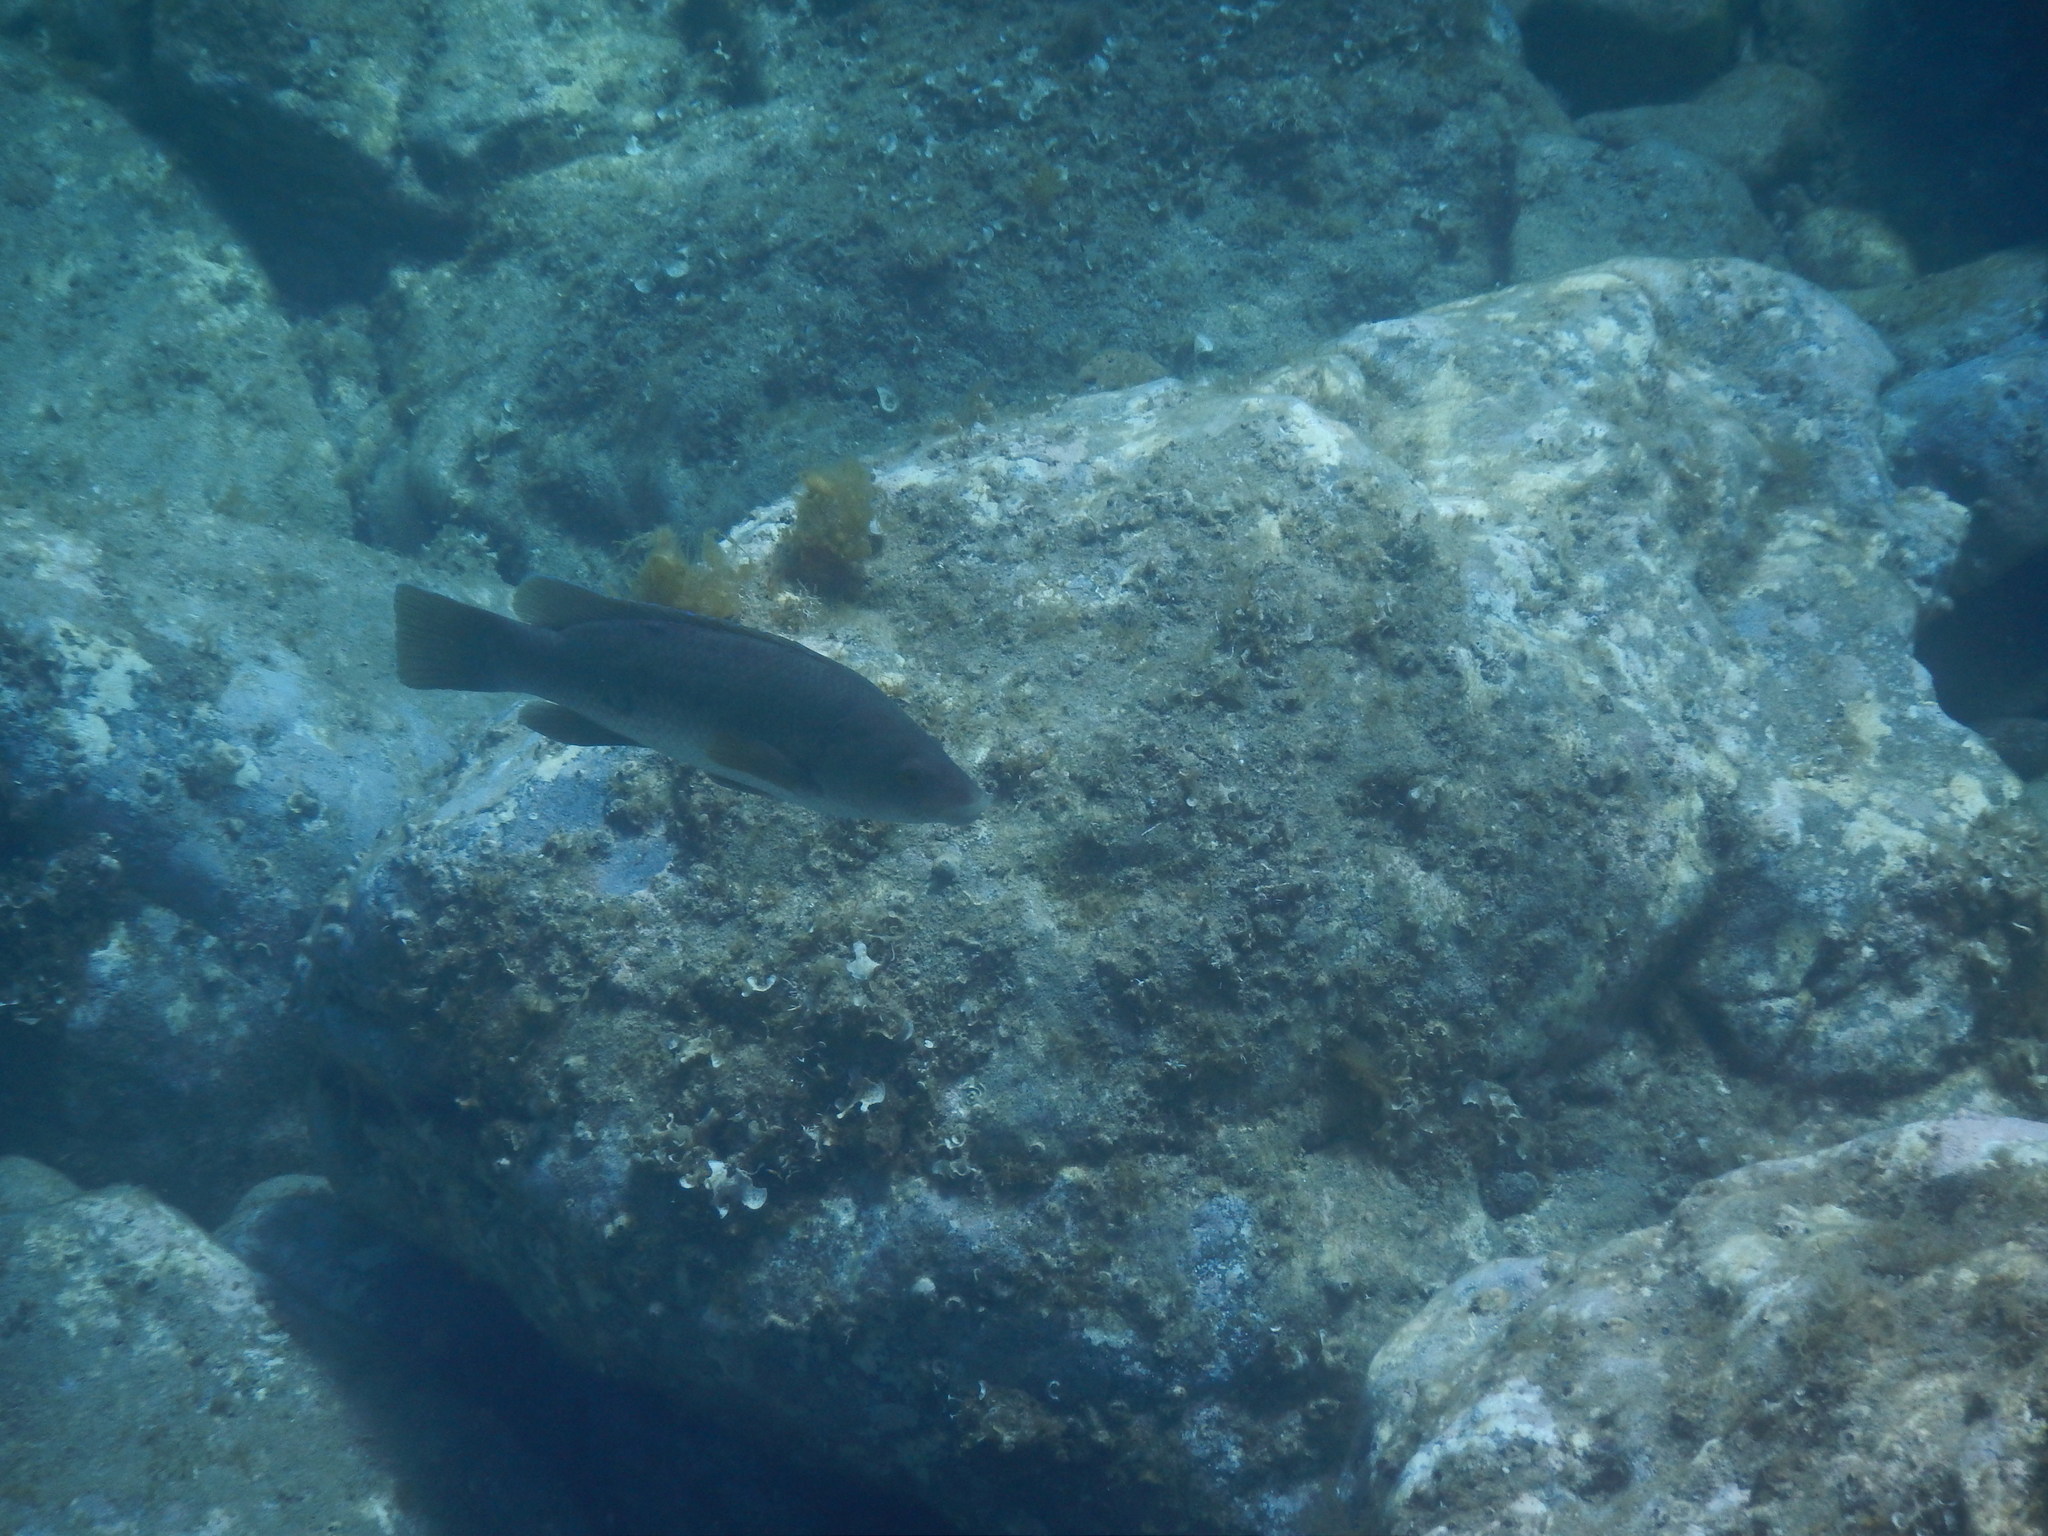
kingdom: Animalia
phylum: Chordata
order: Perciformes
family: Labridae
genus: Labrus
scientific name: Labrus merula
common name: Brown wrasse
